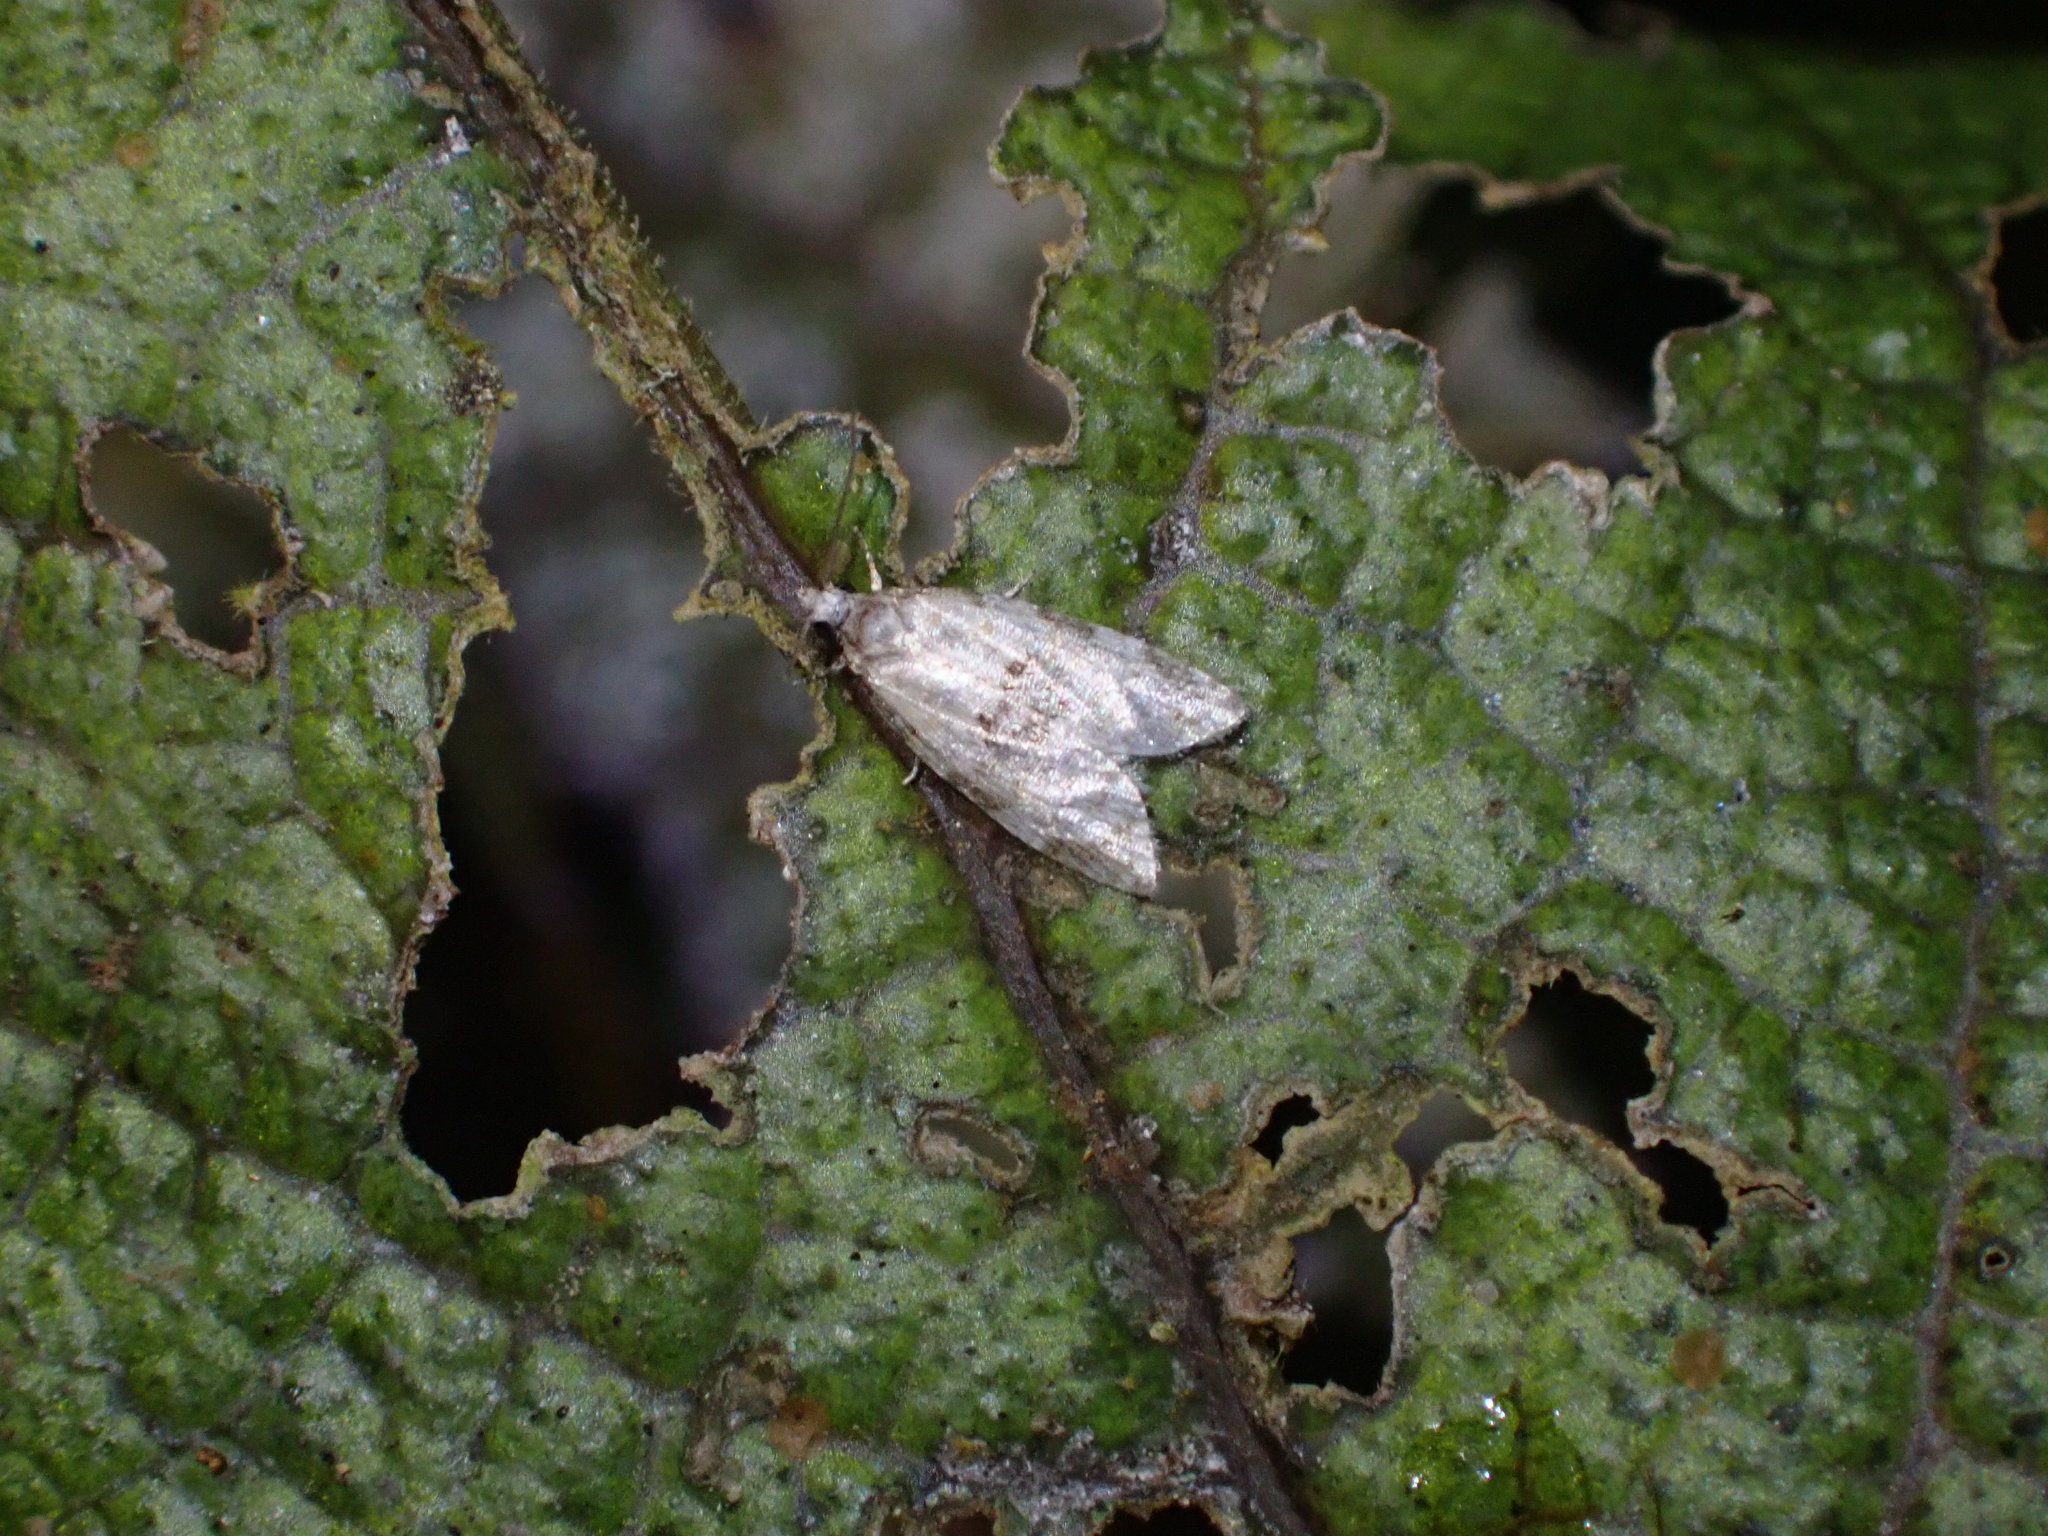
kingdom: Animalia
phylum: Arthropoda
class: Insecta
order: Lepidoptera
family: Tortricidae
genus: Dipterina
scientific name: Dipterina imbriferana
